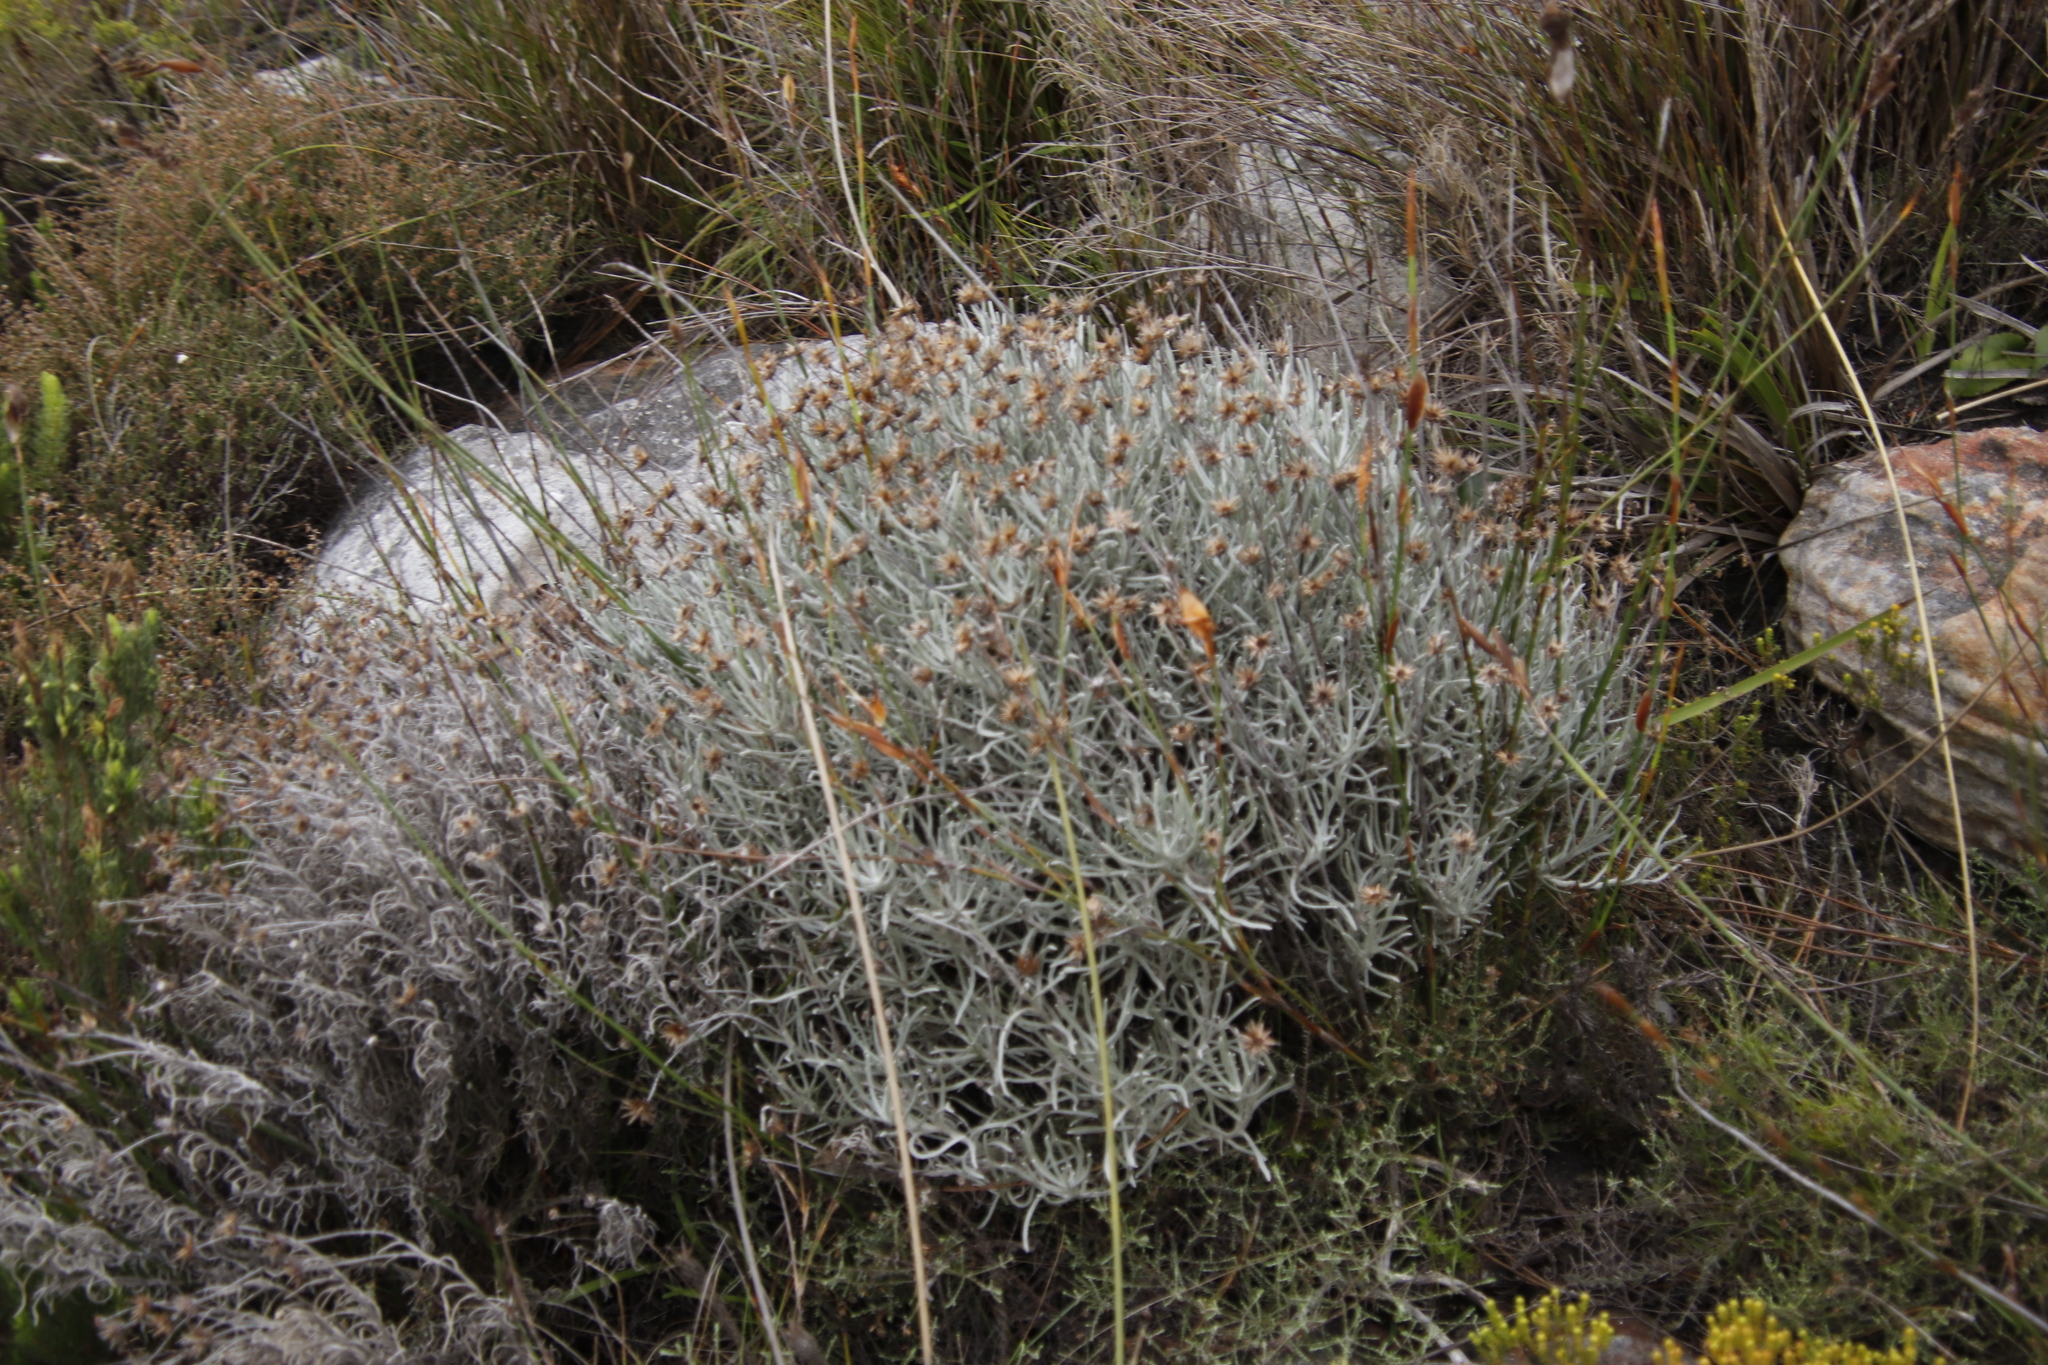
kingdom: Plantae
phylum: Tracheophyta
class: Magnoliopsida
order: Asterales
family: Asteraceae
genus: Syncarpha
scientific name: Syncarpha gnaphaloides
